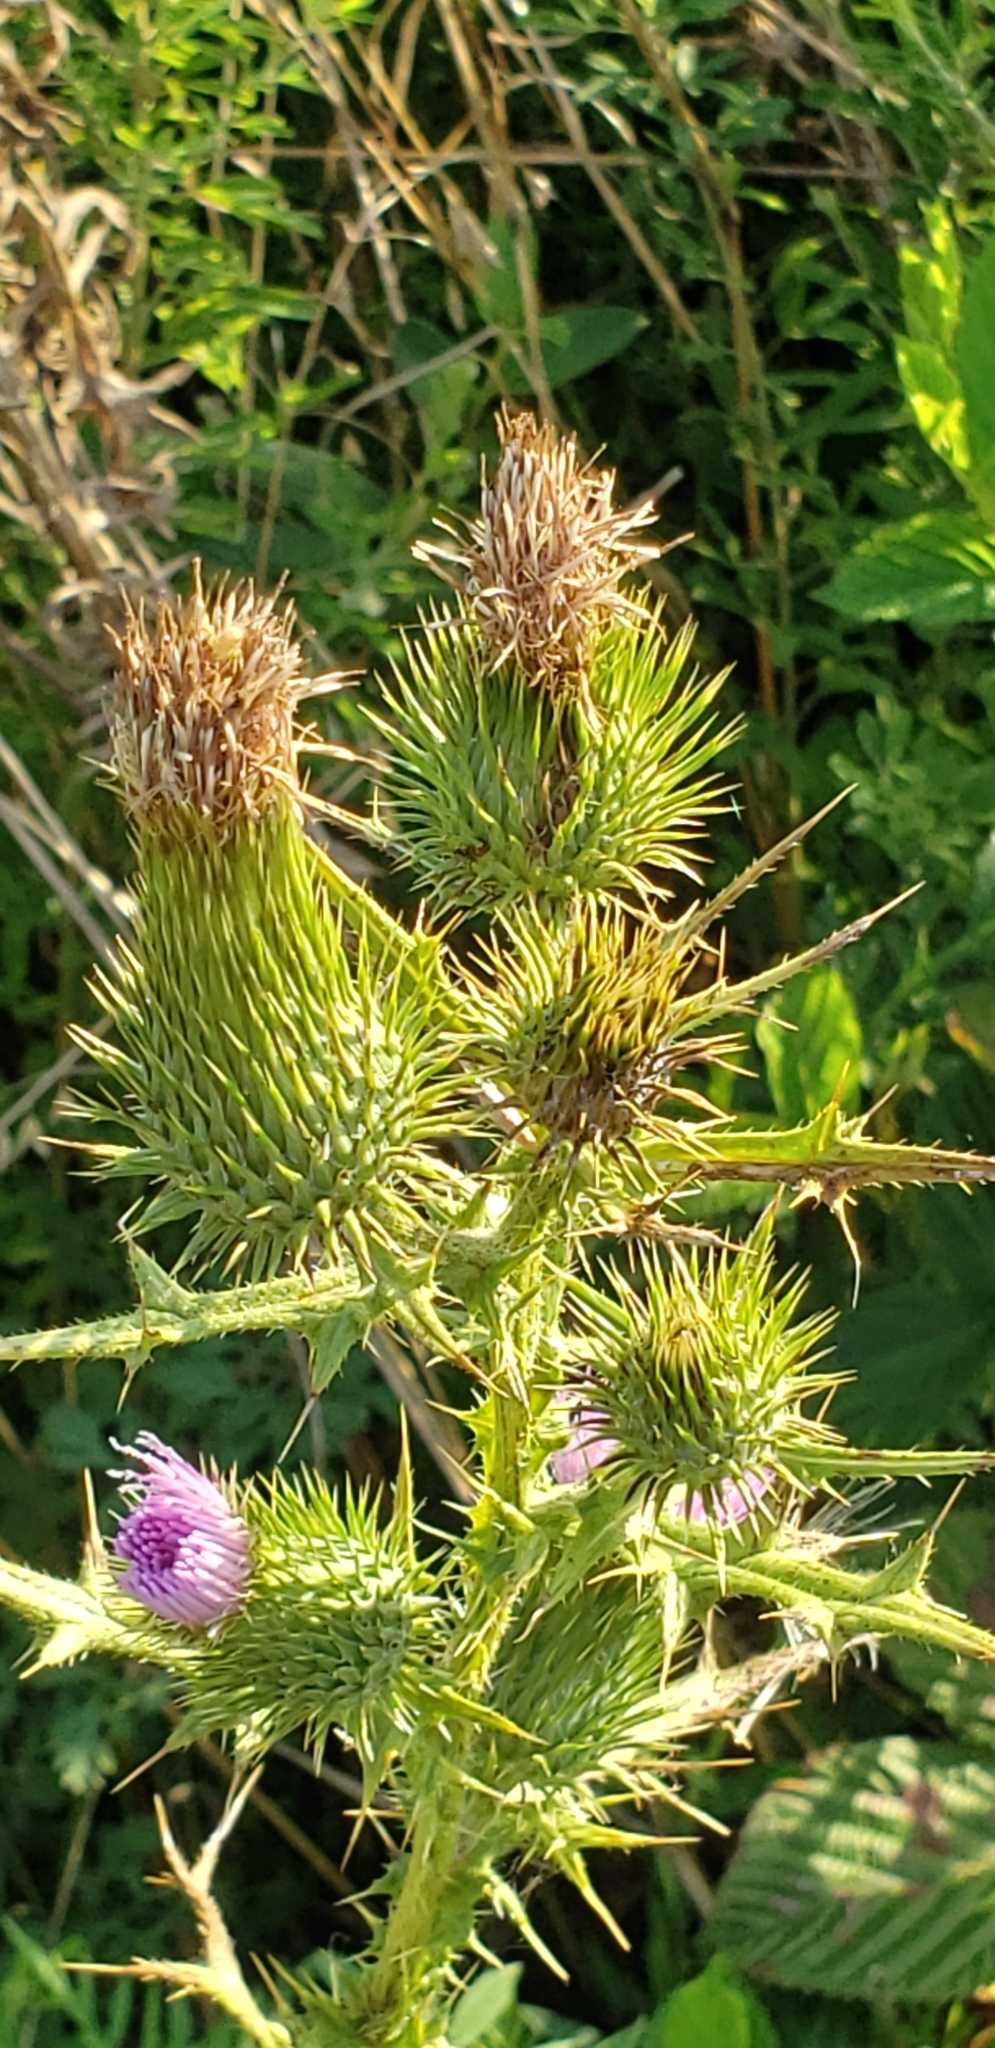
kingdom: Plantae
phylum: Tracheophyta
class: Magnoliopsida
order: Asterales
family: Asteraceae
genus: Cirsium
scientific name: Cirsium vulgare
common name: Bull thistle
